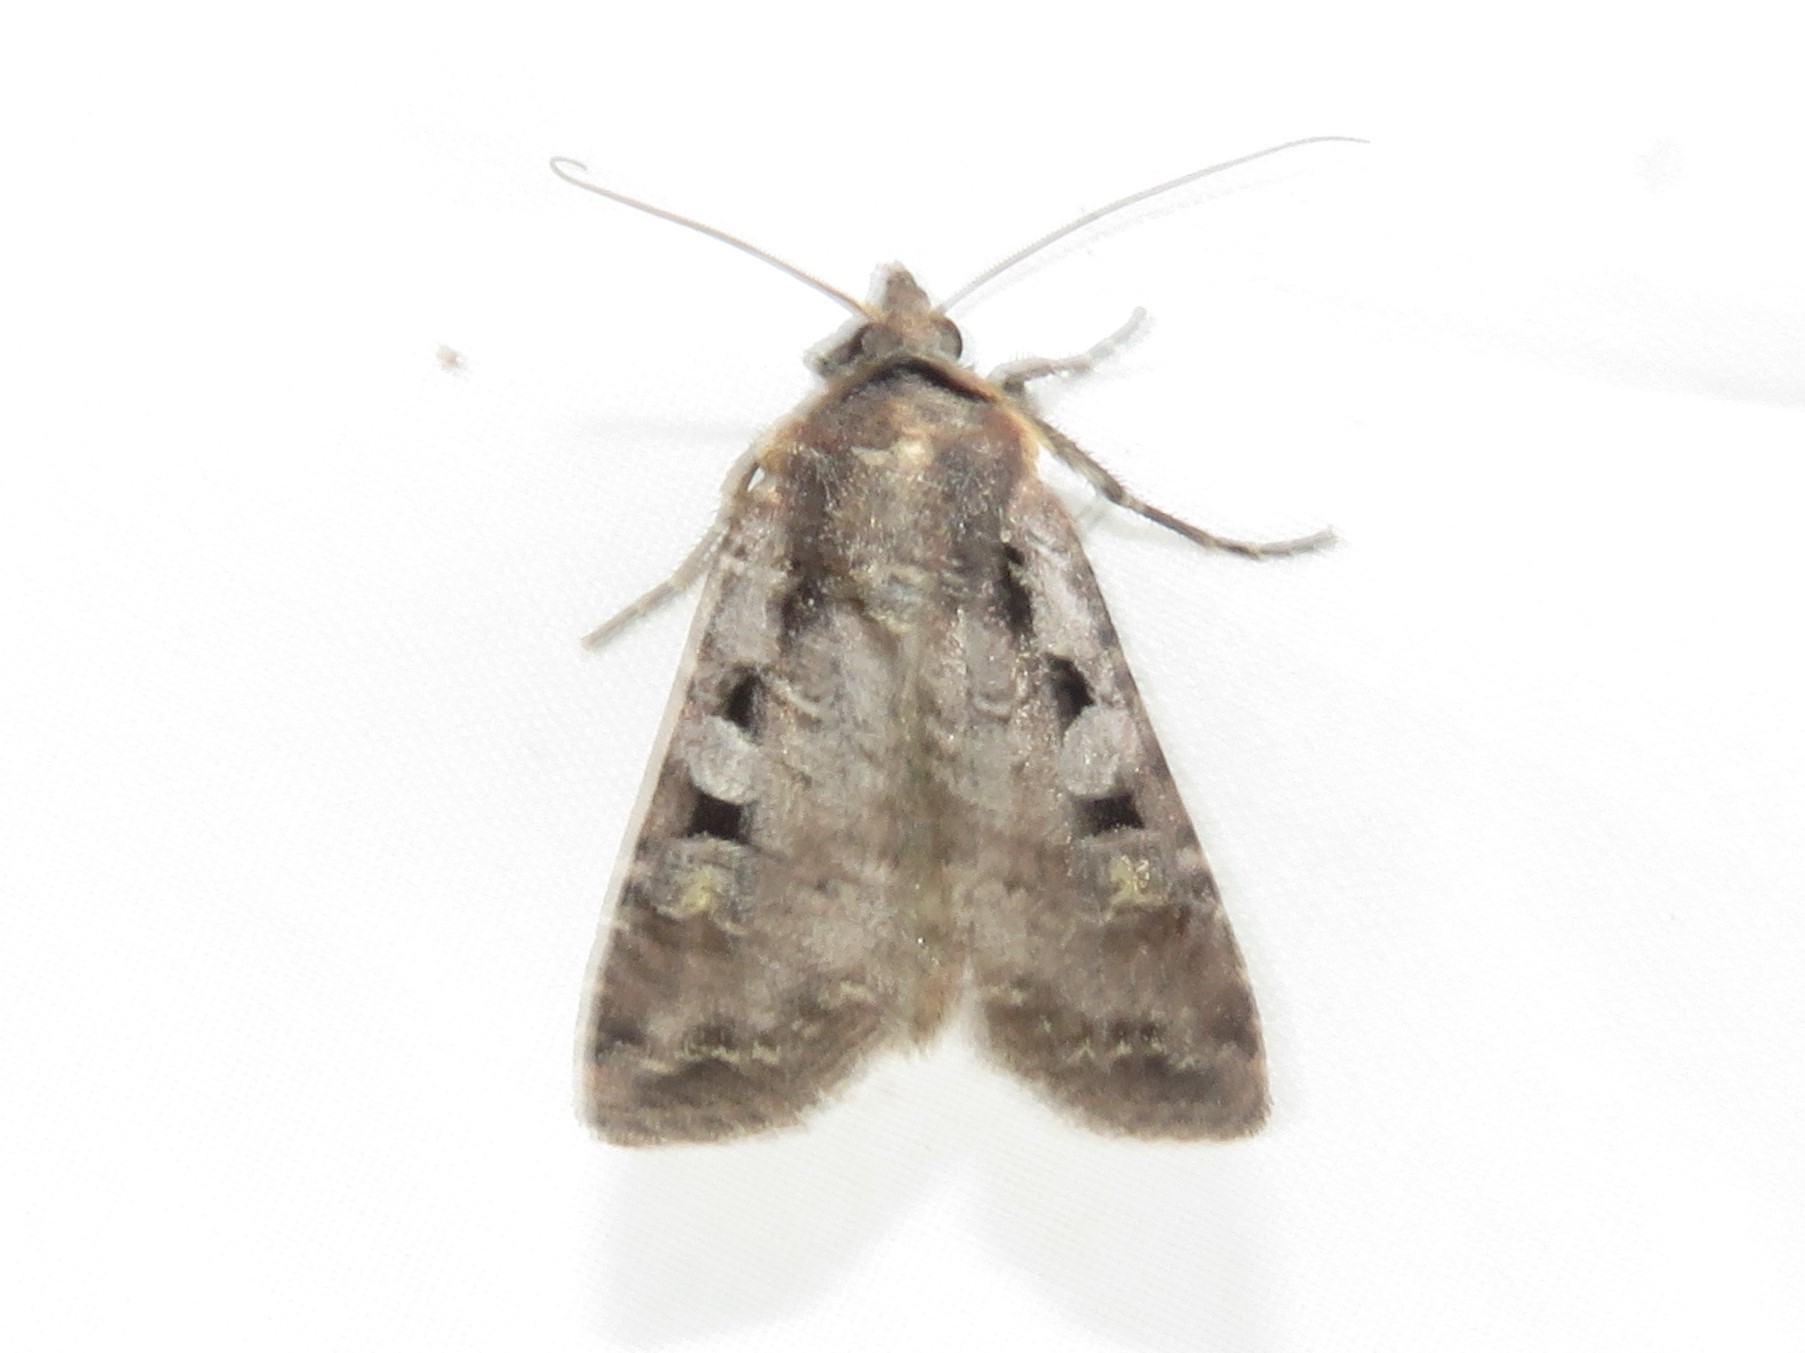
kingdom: Animalia
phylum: Arthropoda
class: Insecta
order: Lepidoptera
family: Noctuidae
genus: Euxoa
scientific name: Euxoa tessellata
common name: Striped cutworm
